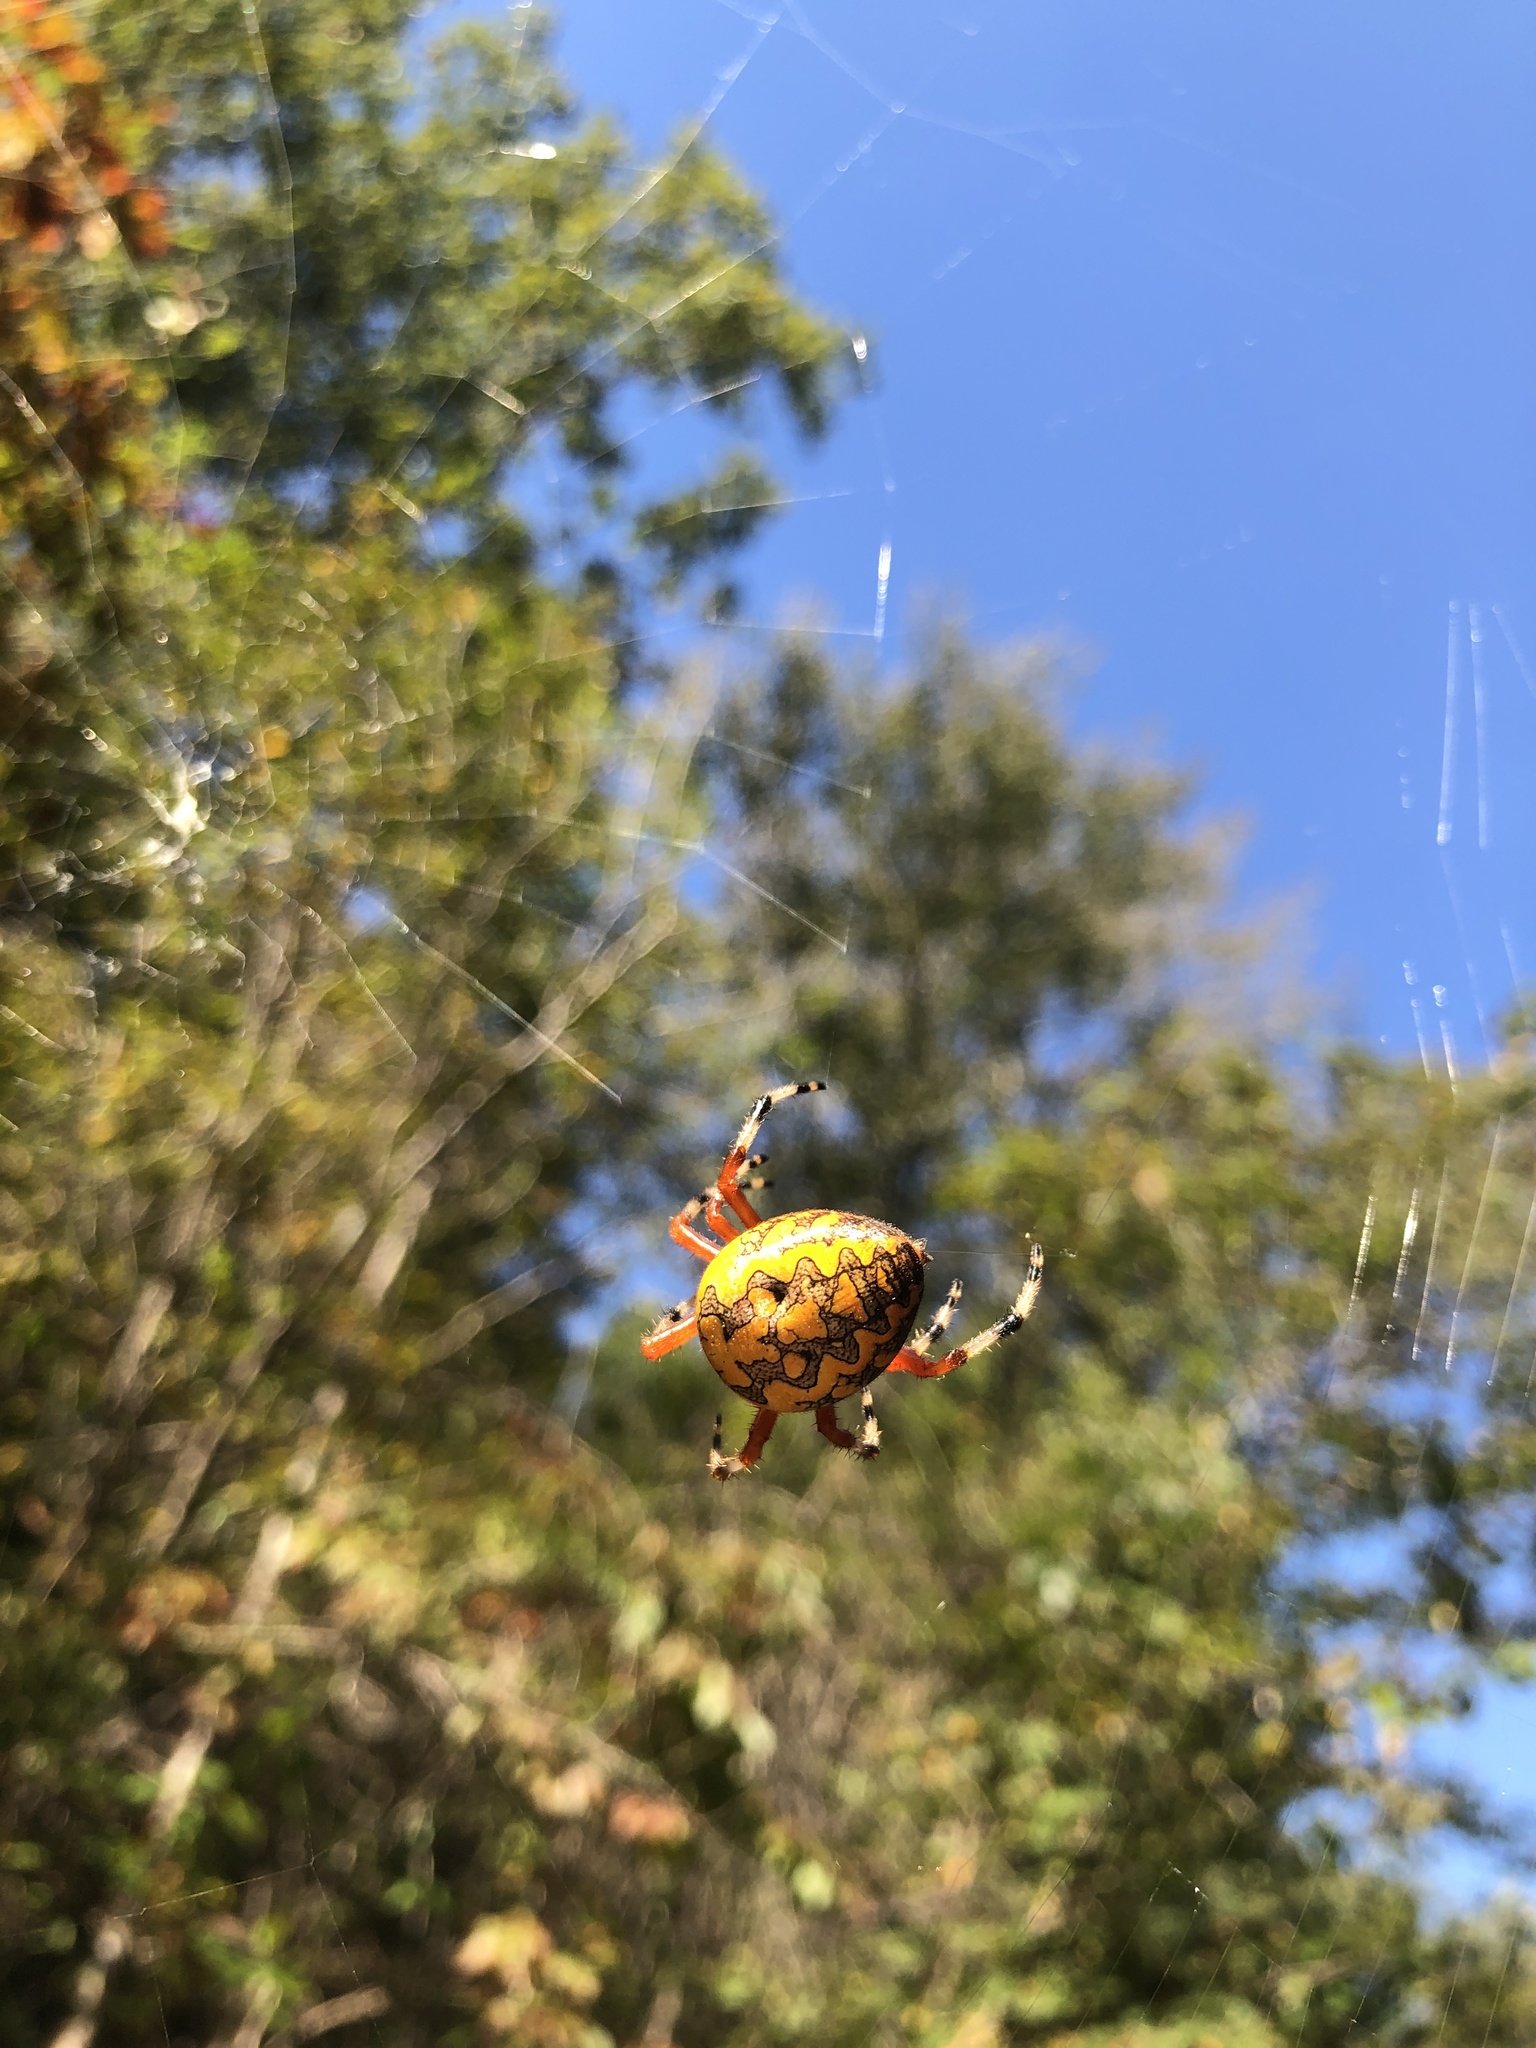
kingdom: Animalia
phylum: Arthropoda
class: Arachnida
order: Araneae
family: Araneidae
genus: Araneus
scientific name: Araneus marmoreus
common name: Marbled orbweaver
